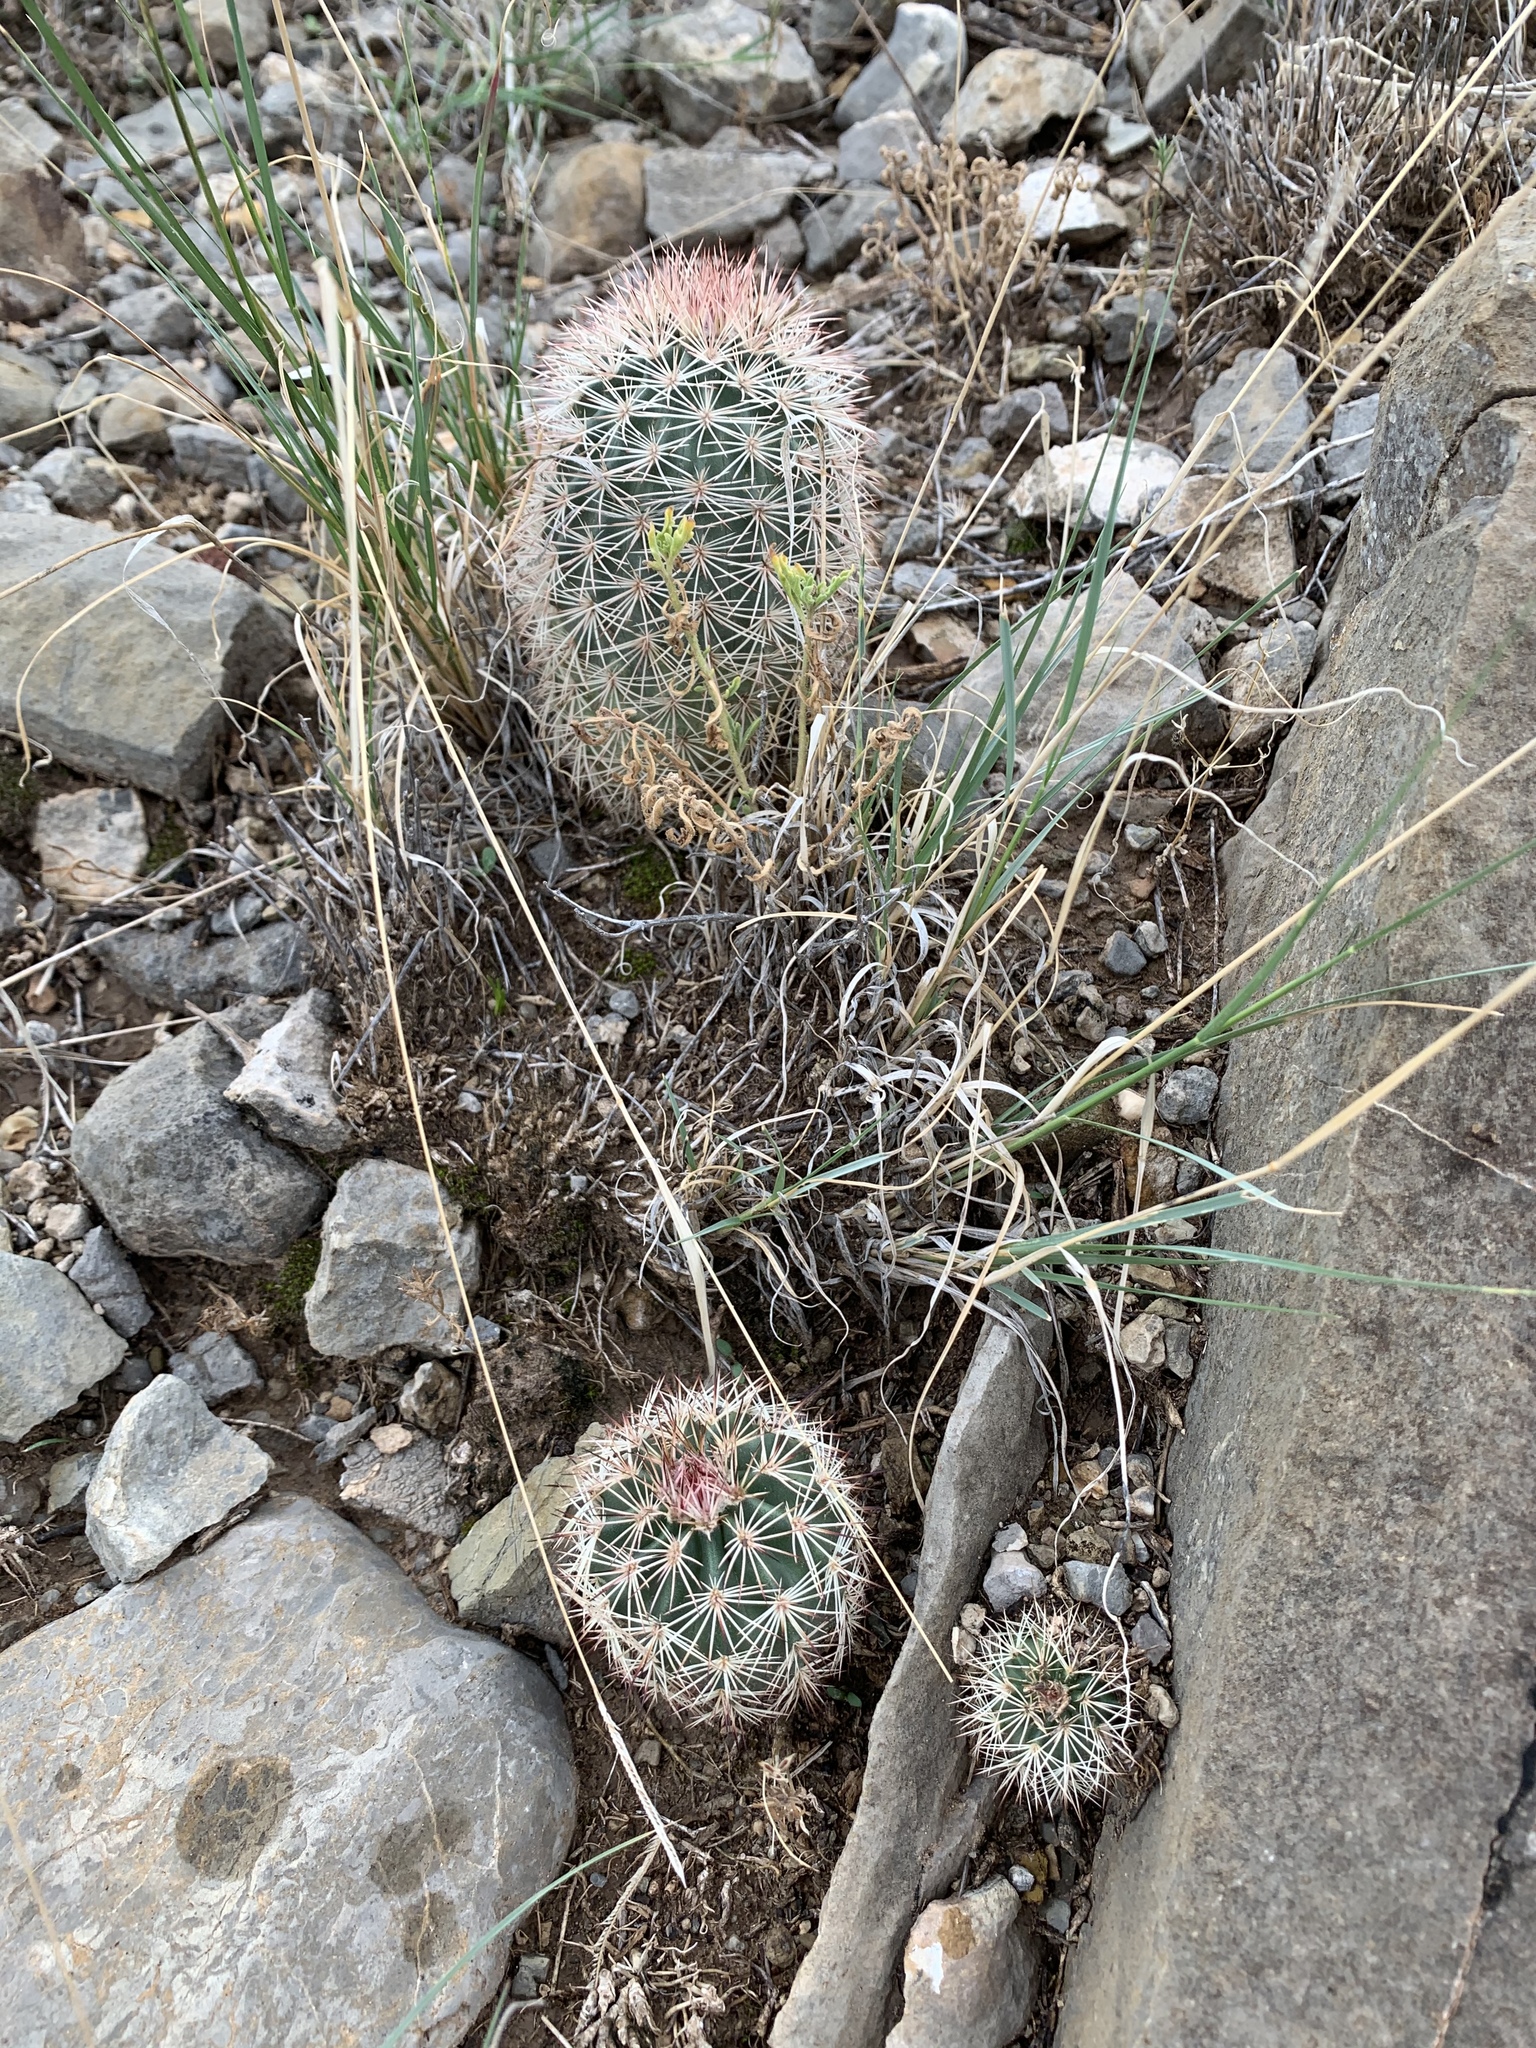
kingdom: Plantae
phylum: Tracheophyta
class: Magnoliopsida
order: Caryophyllales
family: Cactaceae
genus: Echinocereus
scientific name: Echinocereus dasyacanthus
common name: Spiny hedgehog cactus
